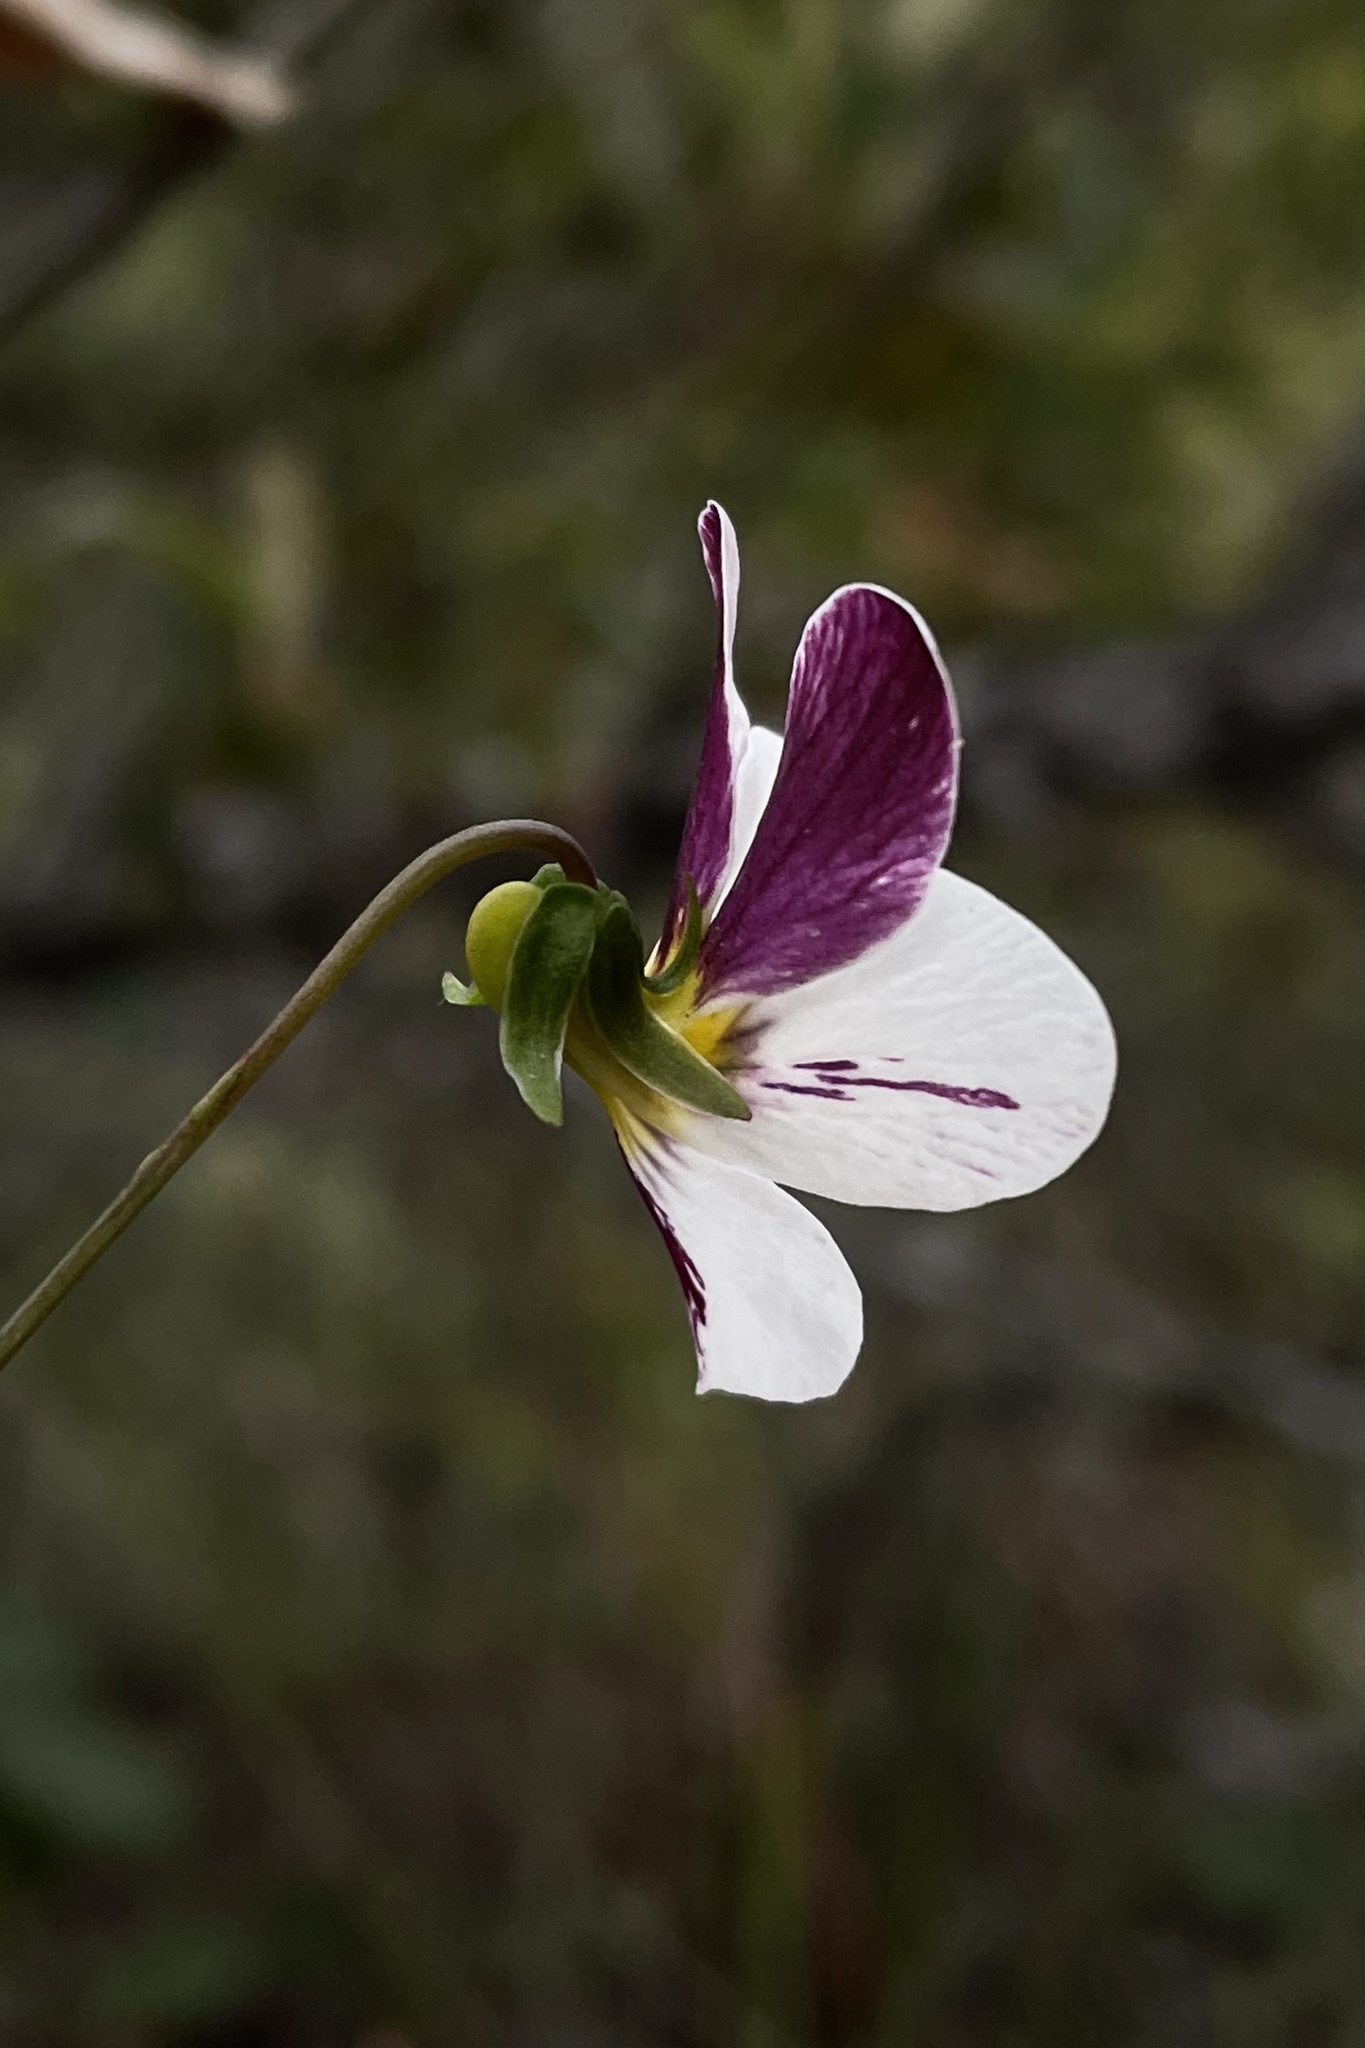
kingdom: Plantae
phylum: Tracheophyta
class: Magnoliopsida
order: Malpighiales
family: Violaceae
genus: Viola
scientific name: Viola ocellata
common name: Western heart's ease
